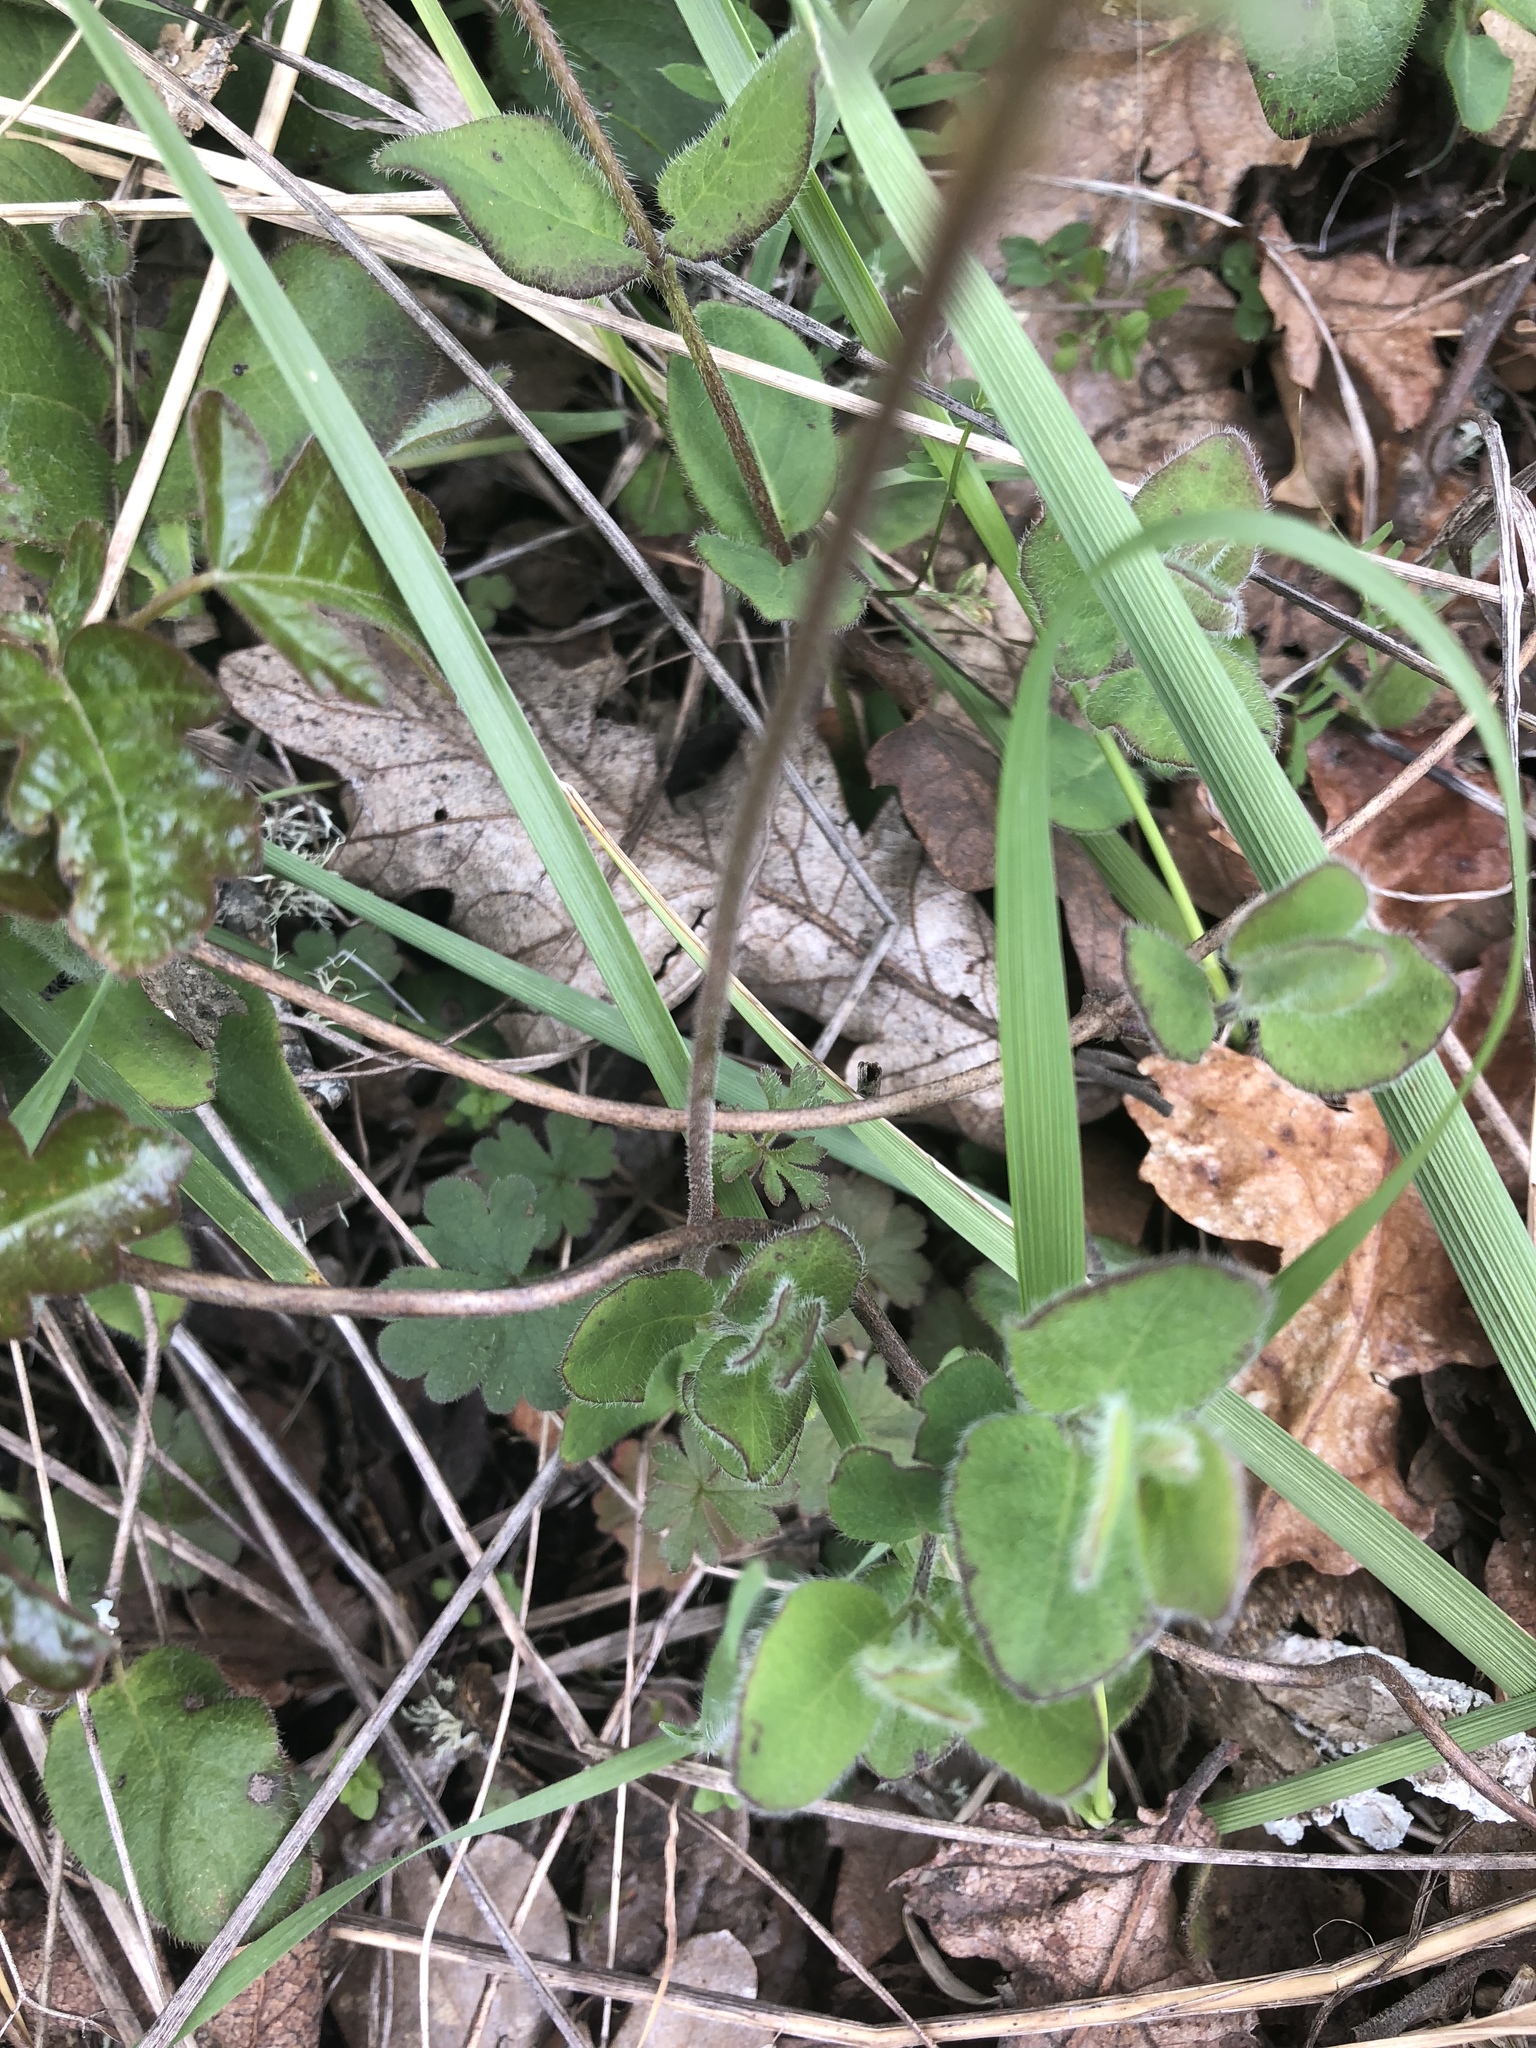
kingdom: Plantae
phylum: Tracheophyta
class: Magnoliopsida
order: Saxifragales
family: Saxifragaceae
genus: Lithophragma
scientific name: Lithophragma parviflorum
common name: Small-flowered fringe-cup
